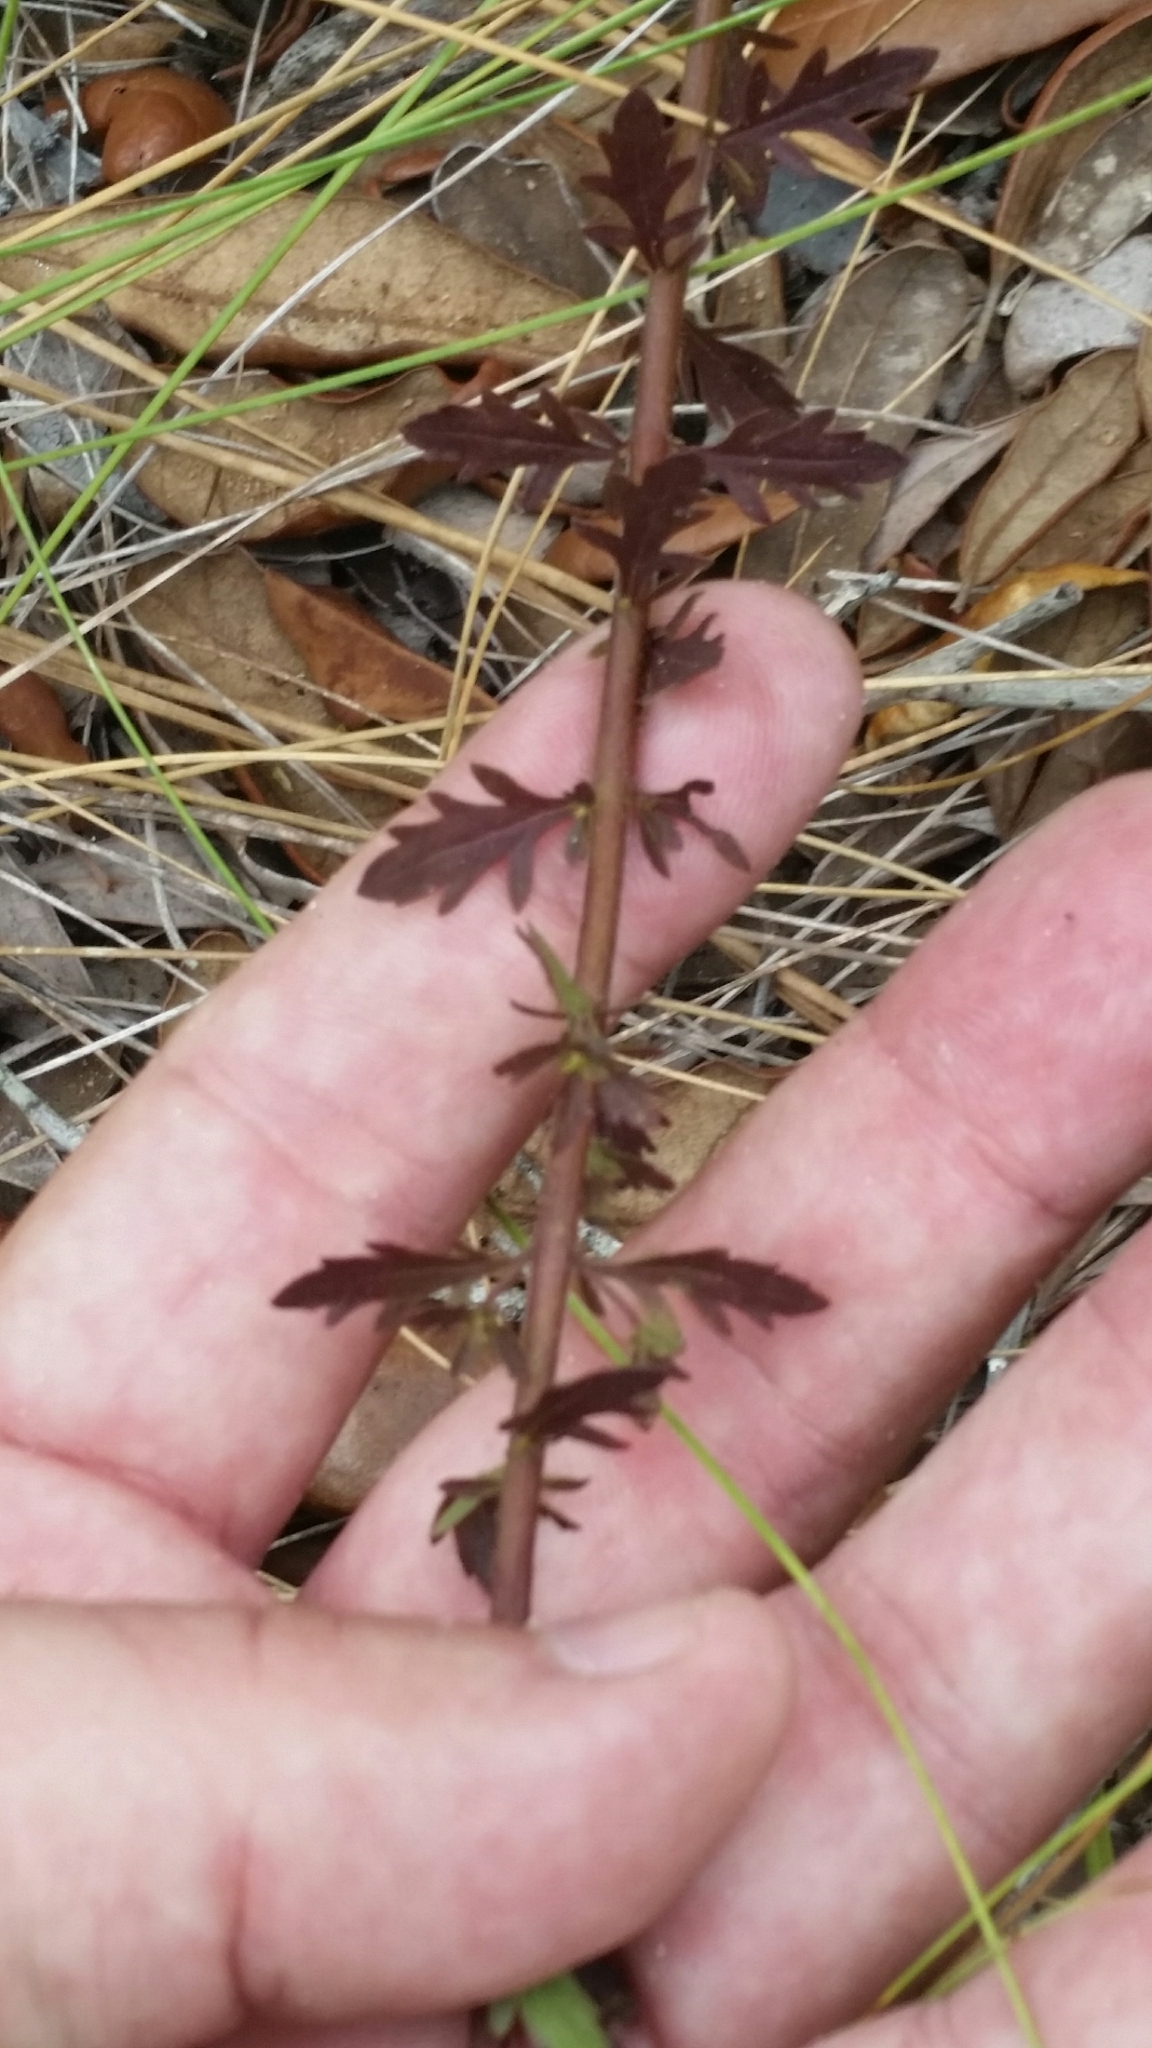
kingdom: Plantae
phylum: Tracheophyta
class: Magnoliopsida
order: Lamiales
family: Orobanchaceae
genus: Seymeria
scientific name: Seymeria pectinata
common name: Piedmont black-senna
